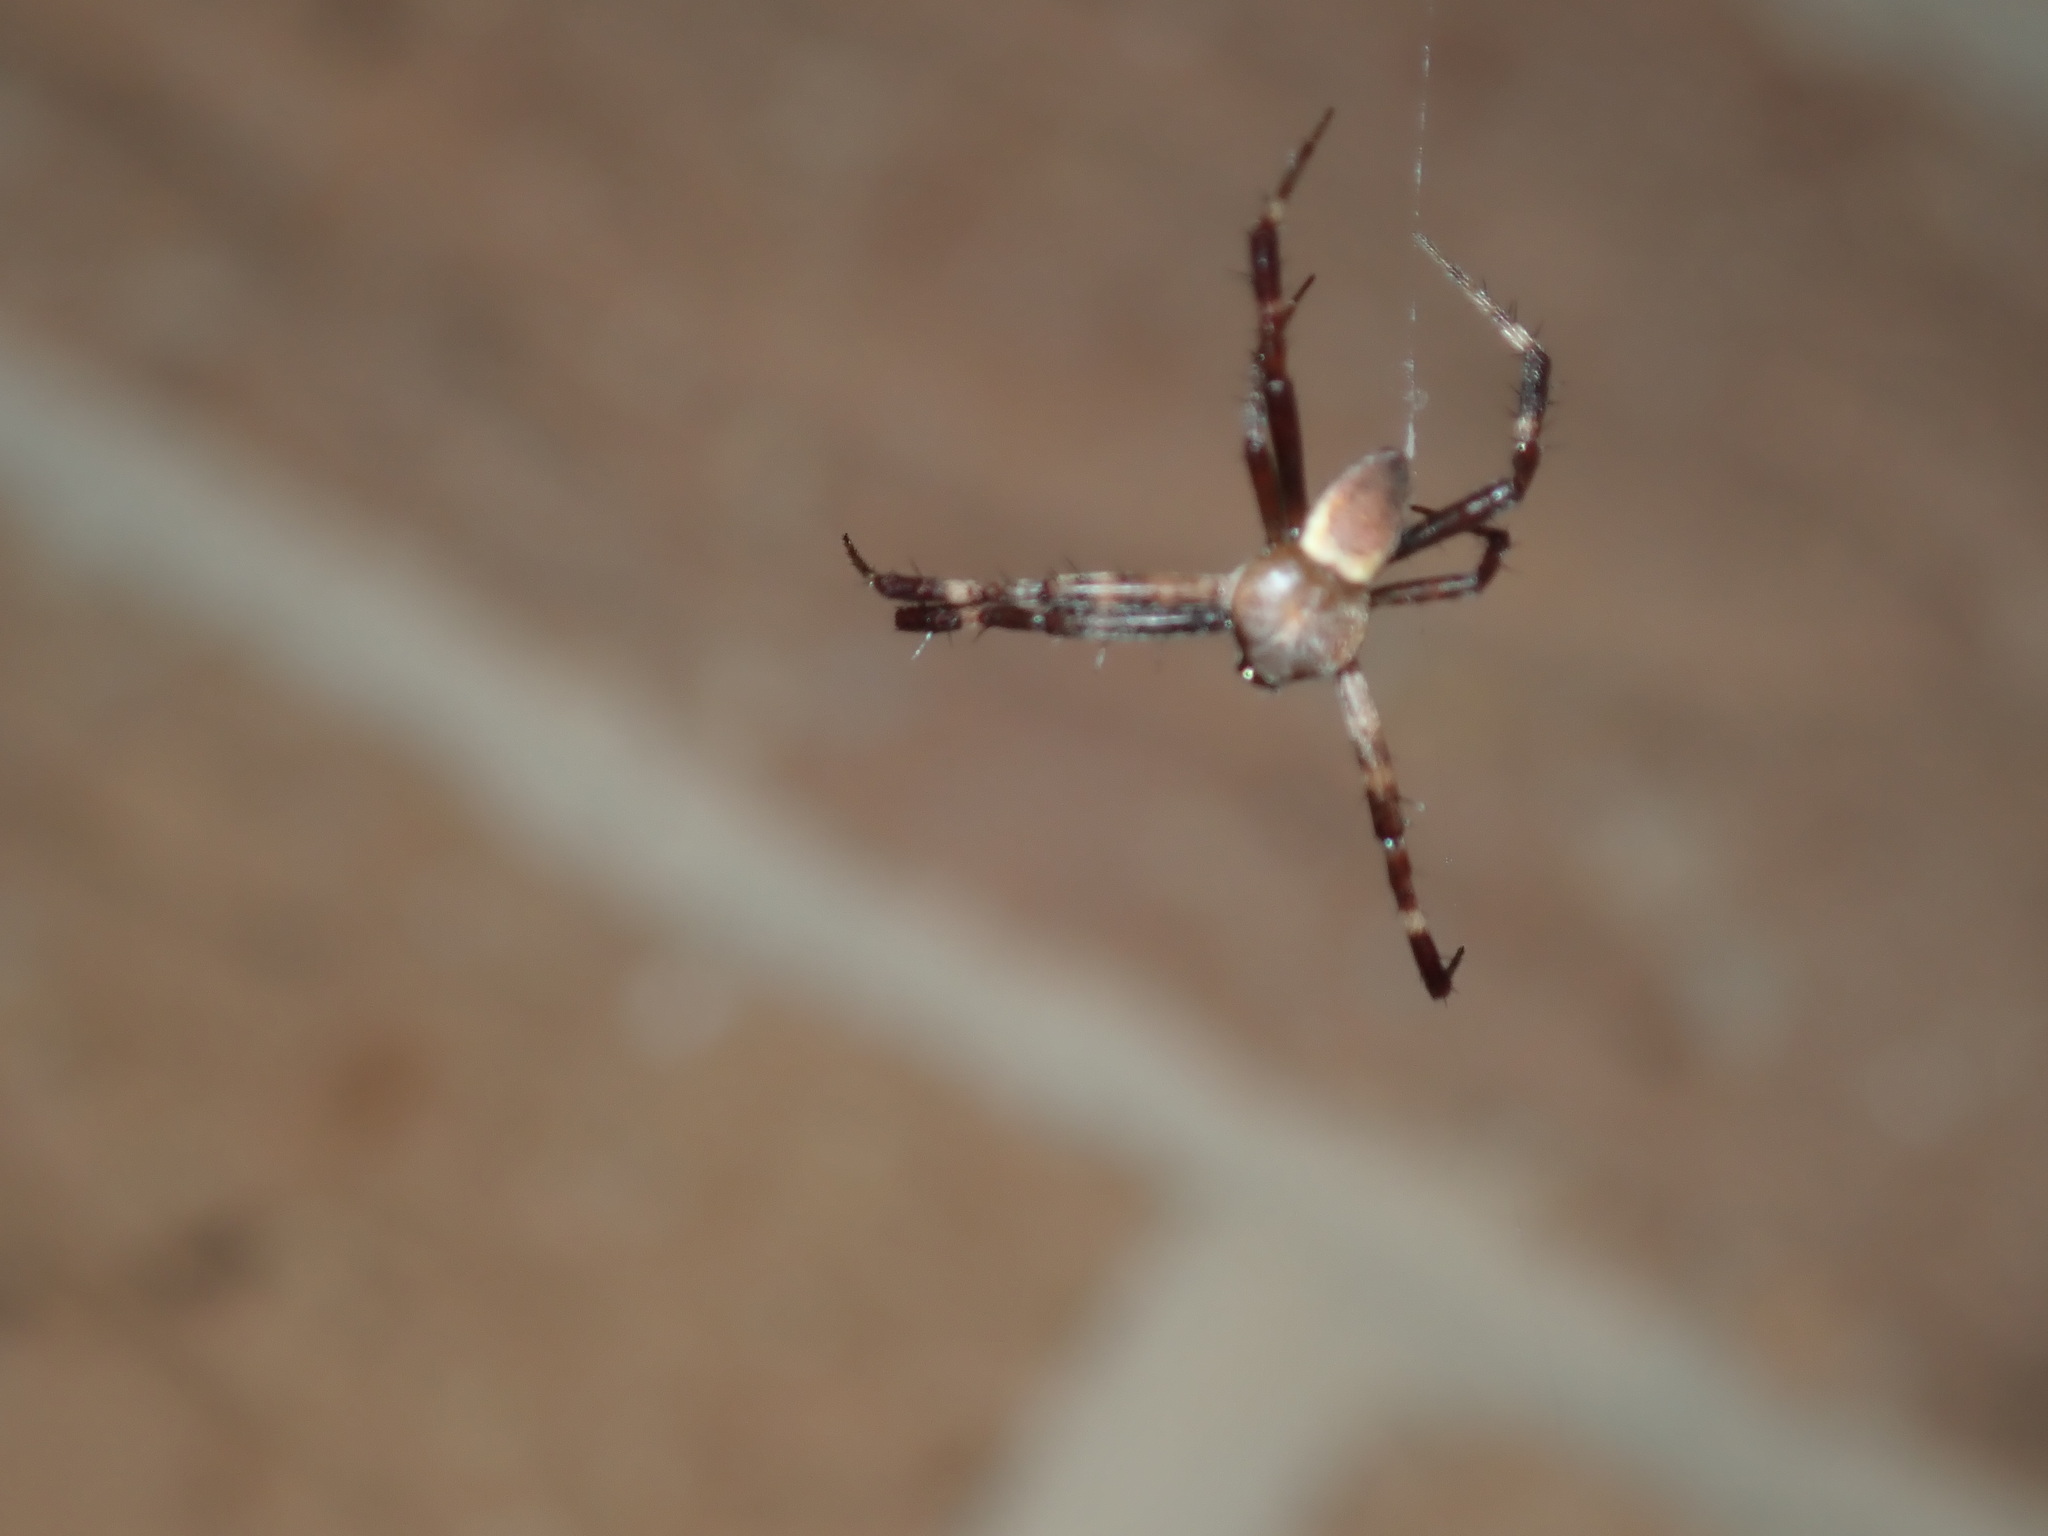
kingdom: Animalia
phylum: Arthropoda
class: Arachnida
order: Araneae
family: Araneidae
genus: Argiope
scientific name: Argiope keyserlingi
